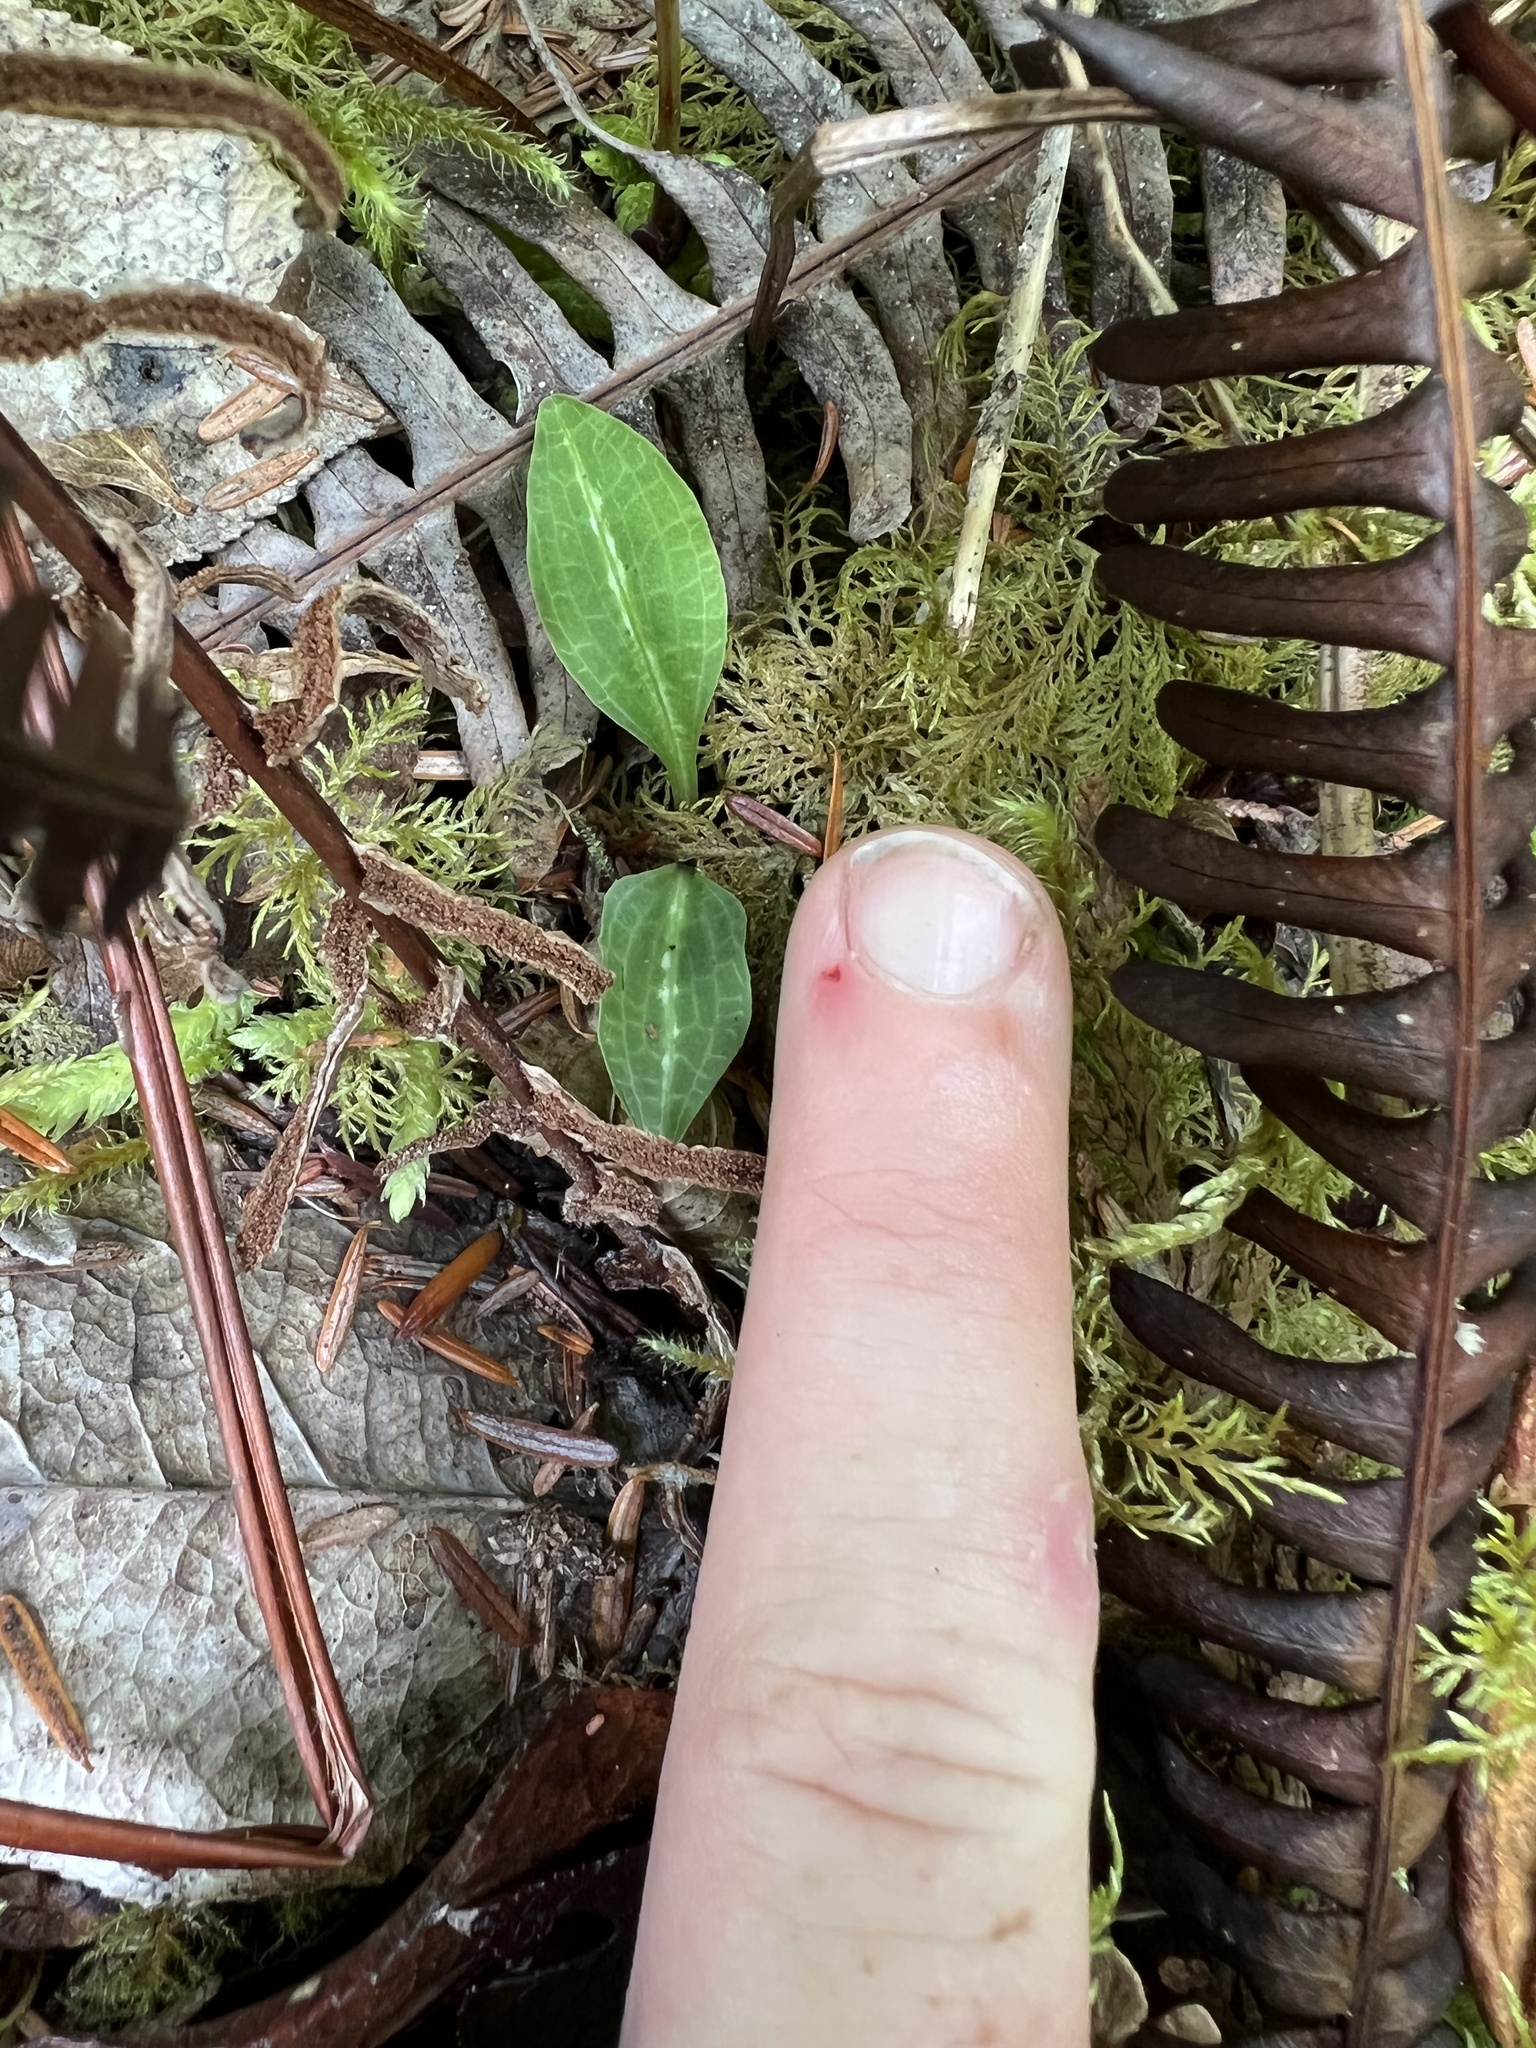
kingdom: Plantae
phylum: Tracheophyta
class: Liliopsida
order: Asparagales
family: Orchidaceae
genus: Goodyera
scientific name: Goodyera oblongifolia
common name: Giant rattlesnake-plantain
